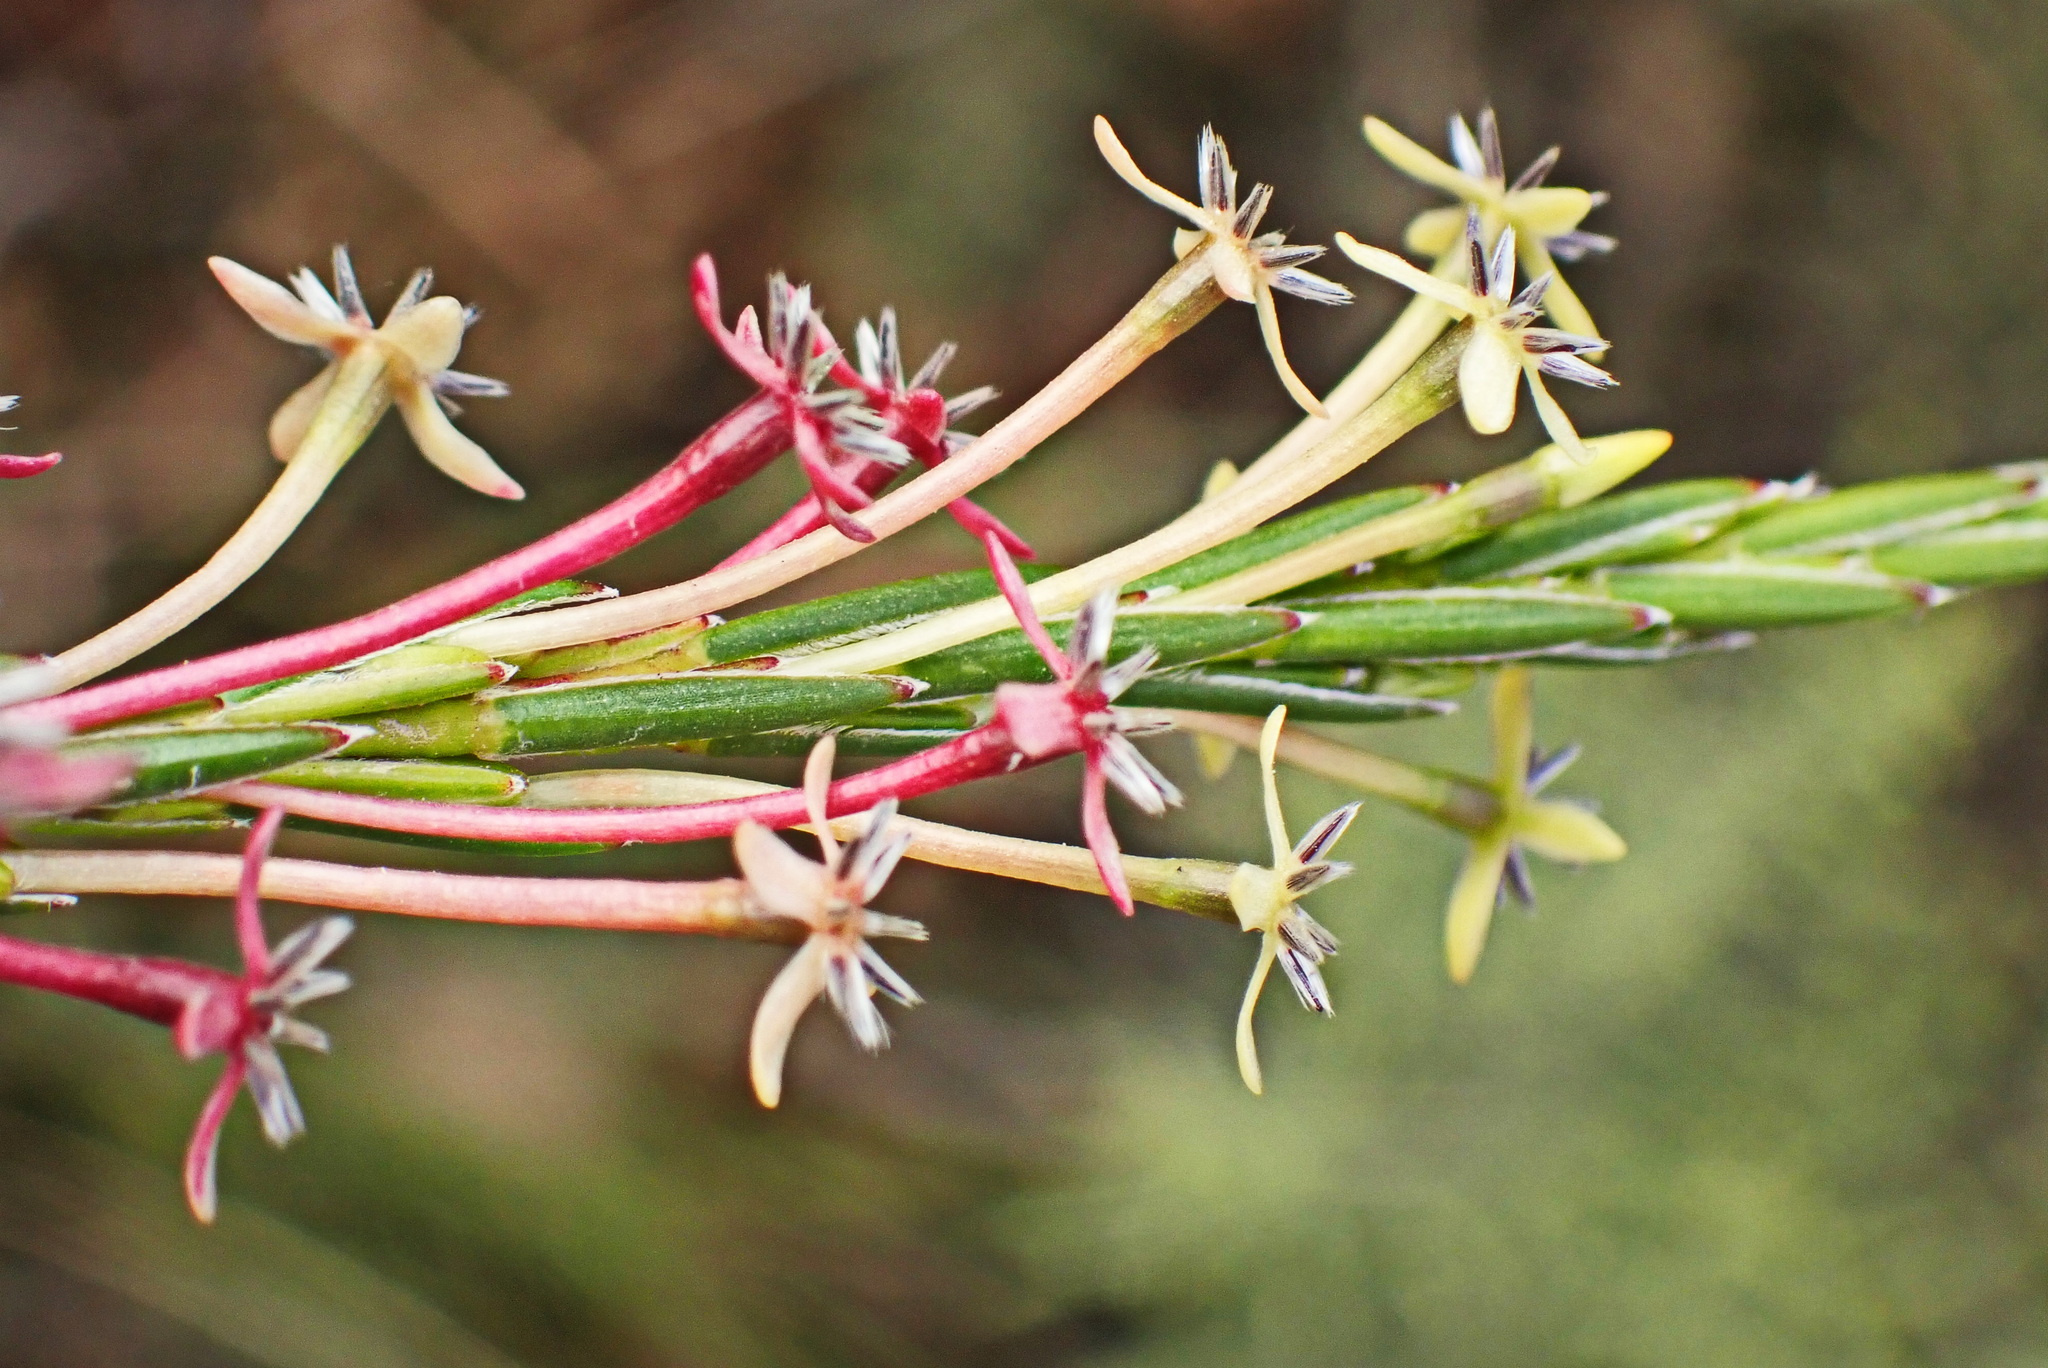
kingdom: Plantae
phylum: Tracheophyta
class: Magnoliopsida
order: Malvales
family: Thymelaeaceae
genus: Struthiola
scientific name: Struthiola macowanii
